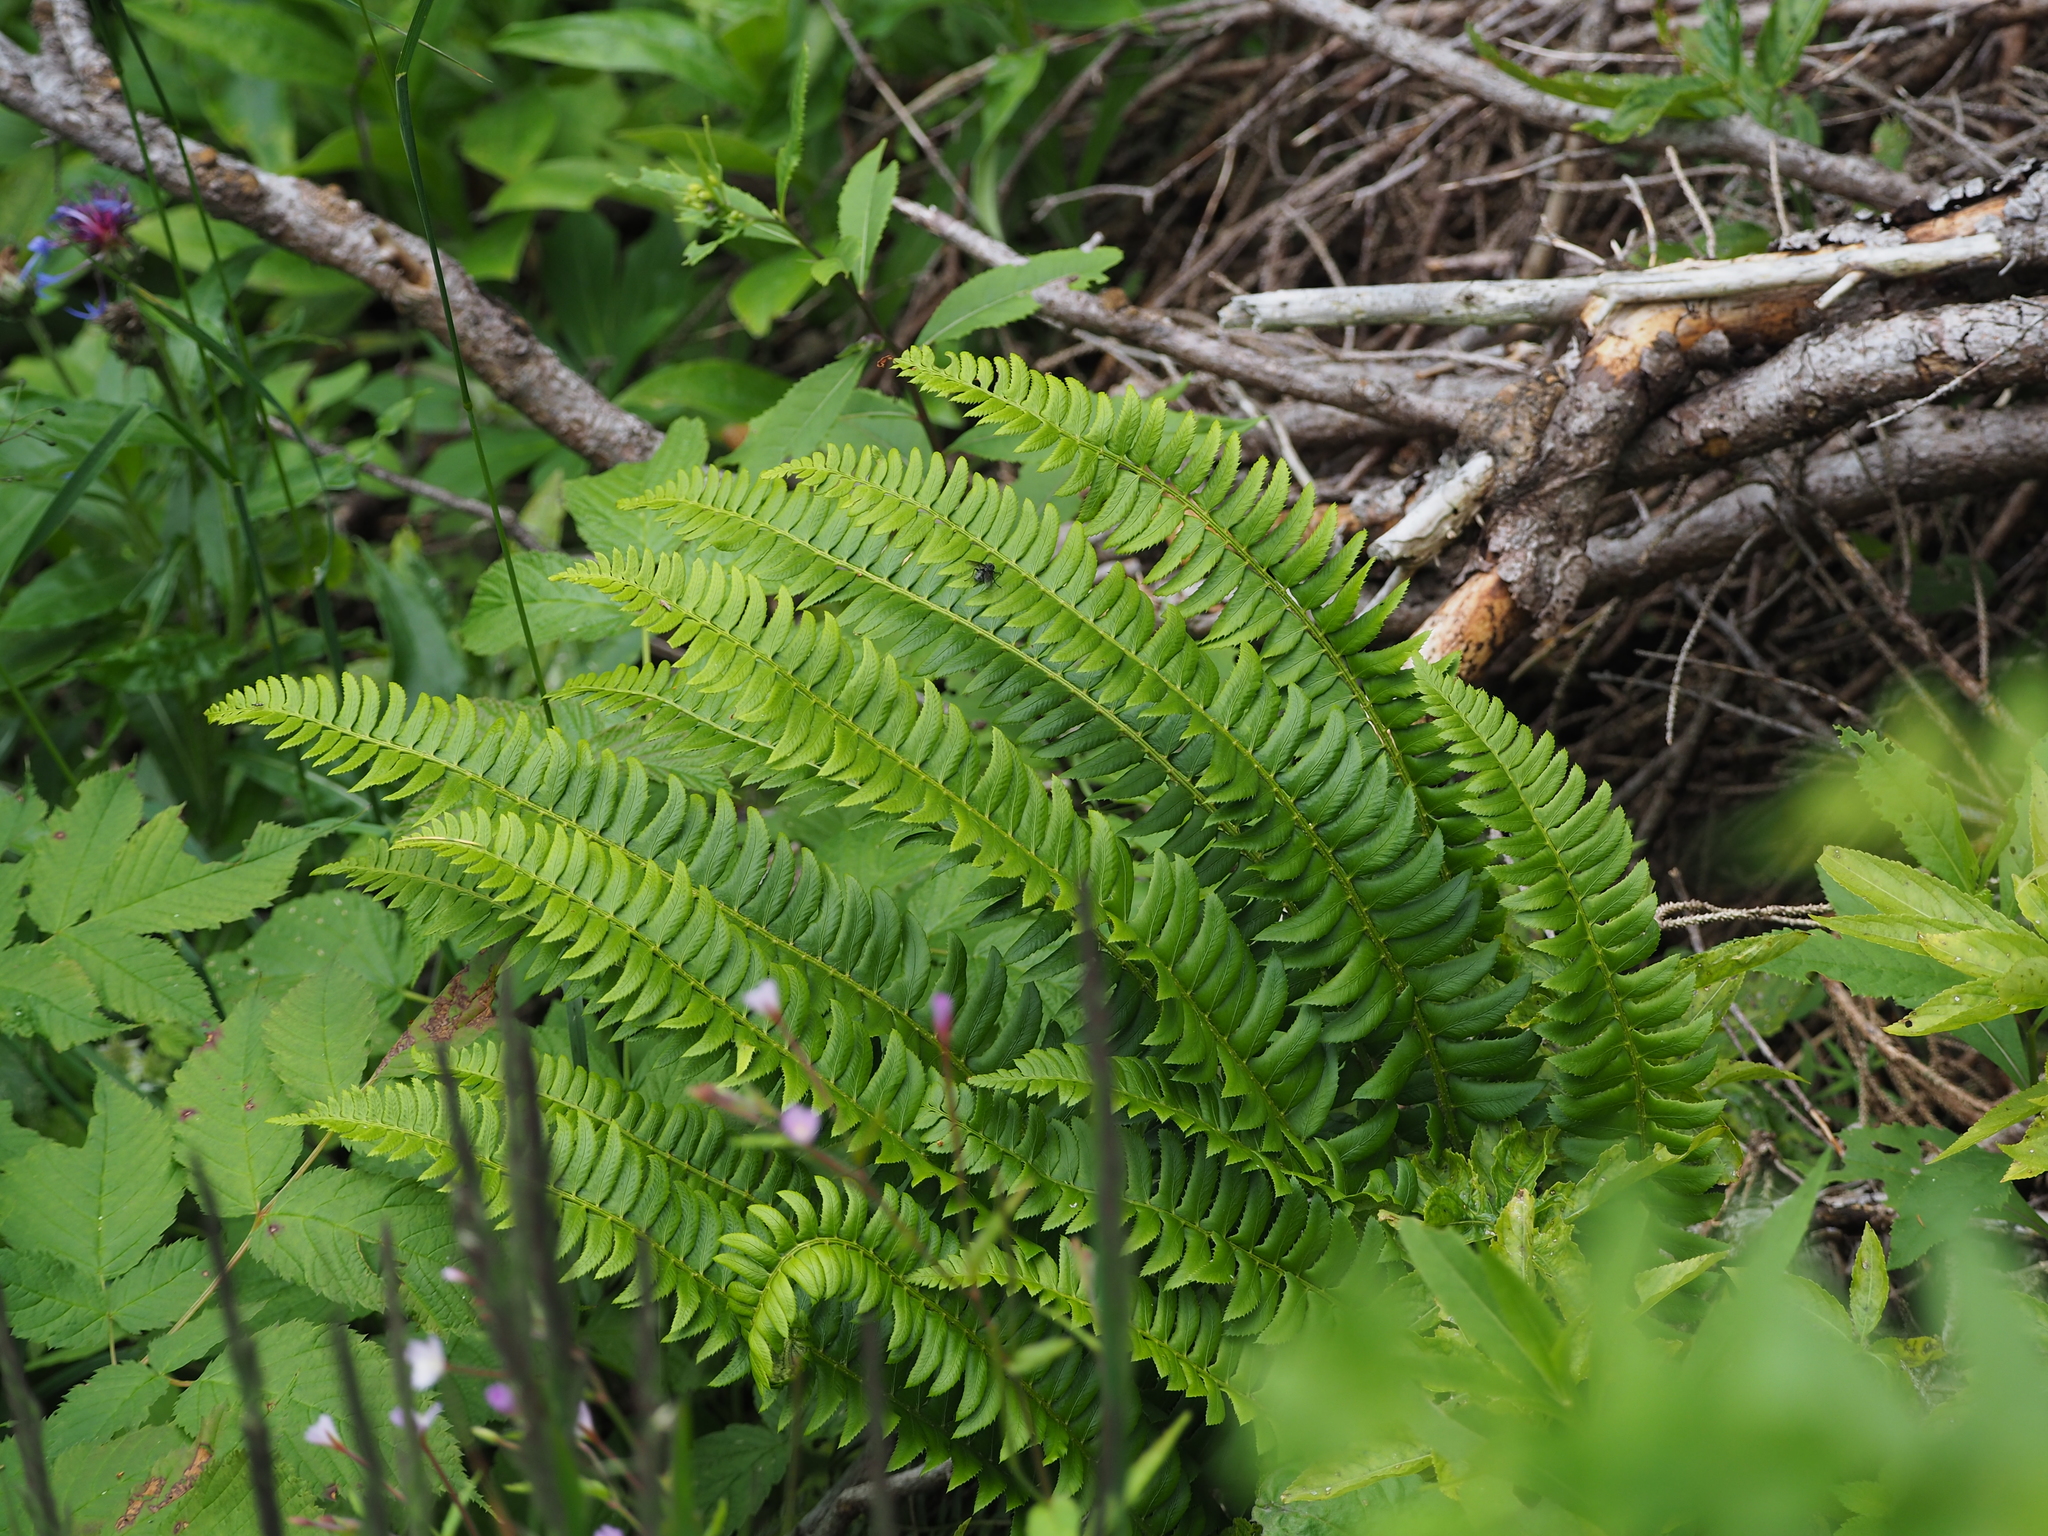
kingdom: Plantae
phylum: Tracheophyta
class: Polypodiopsida
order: Polypodiales
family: Dryopteridaceae
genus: Polystichum
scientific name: Polystichum lonchitis
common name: Holly fern
